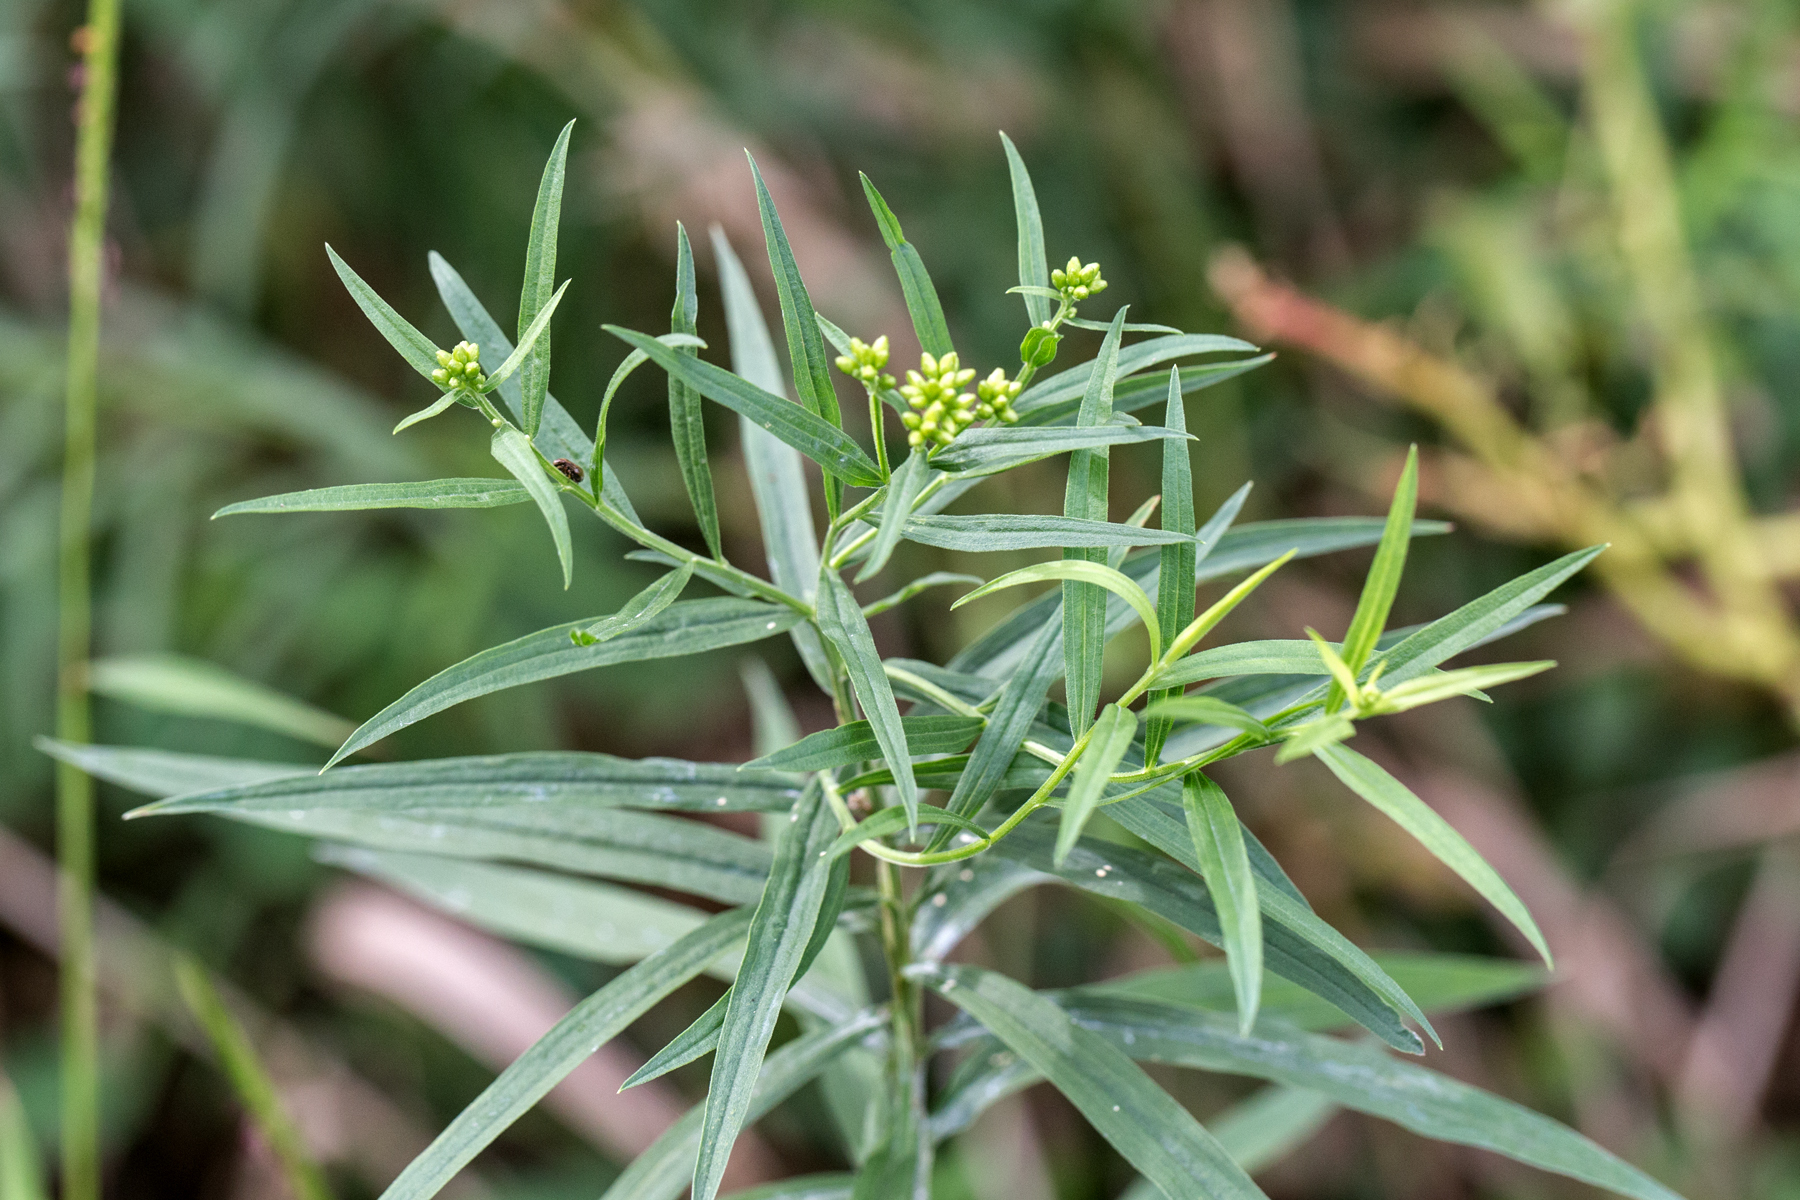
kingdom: Plantae
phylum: Tracheophyta
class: Magnoliopsida
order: Asterales
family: Asteraceae
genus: Euthamia
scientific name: Euthamia graminifolia
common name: Common goldentop
